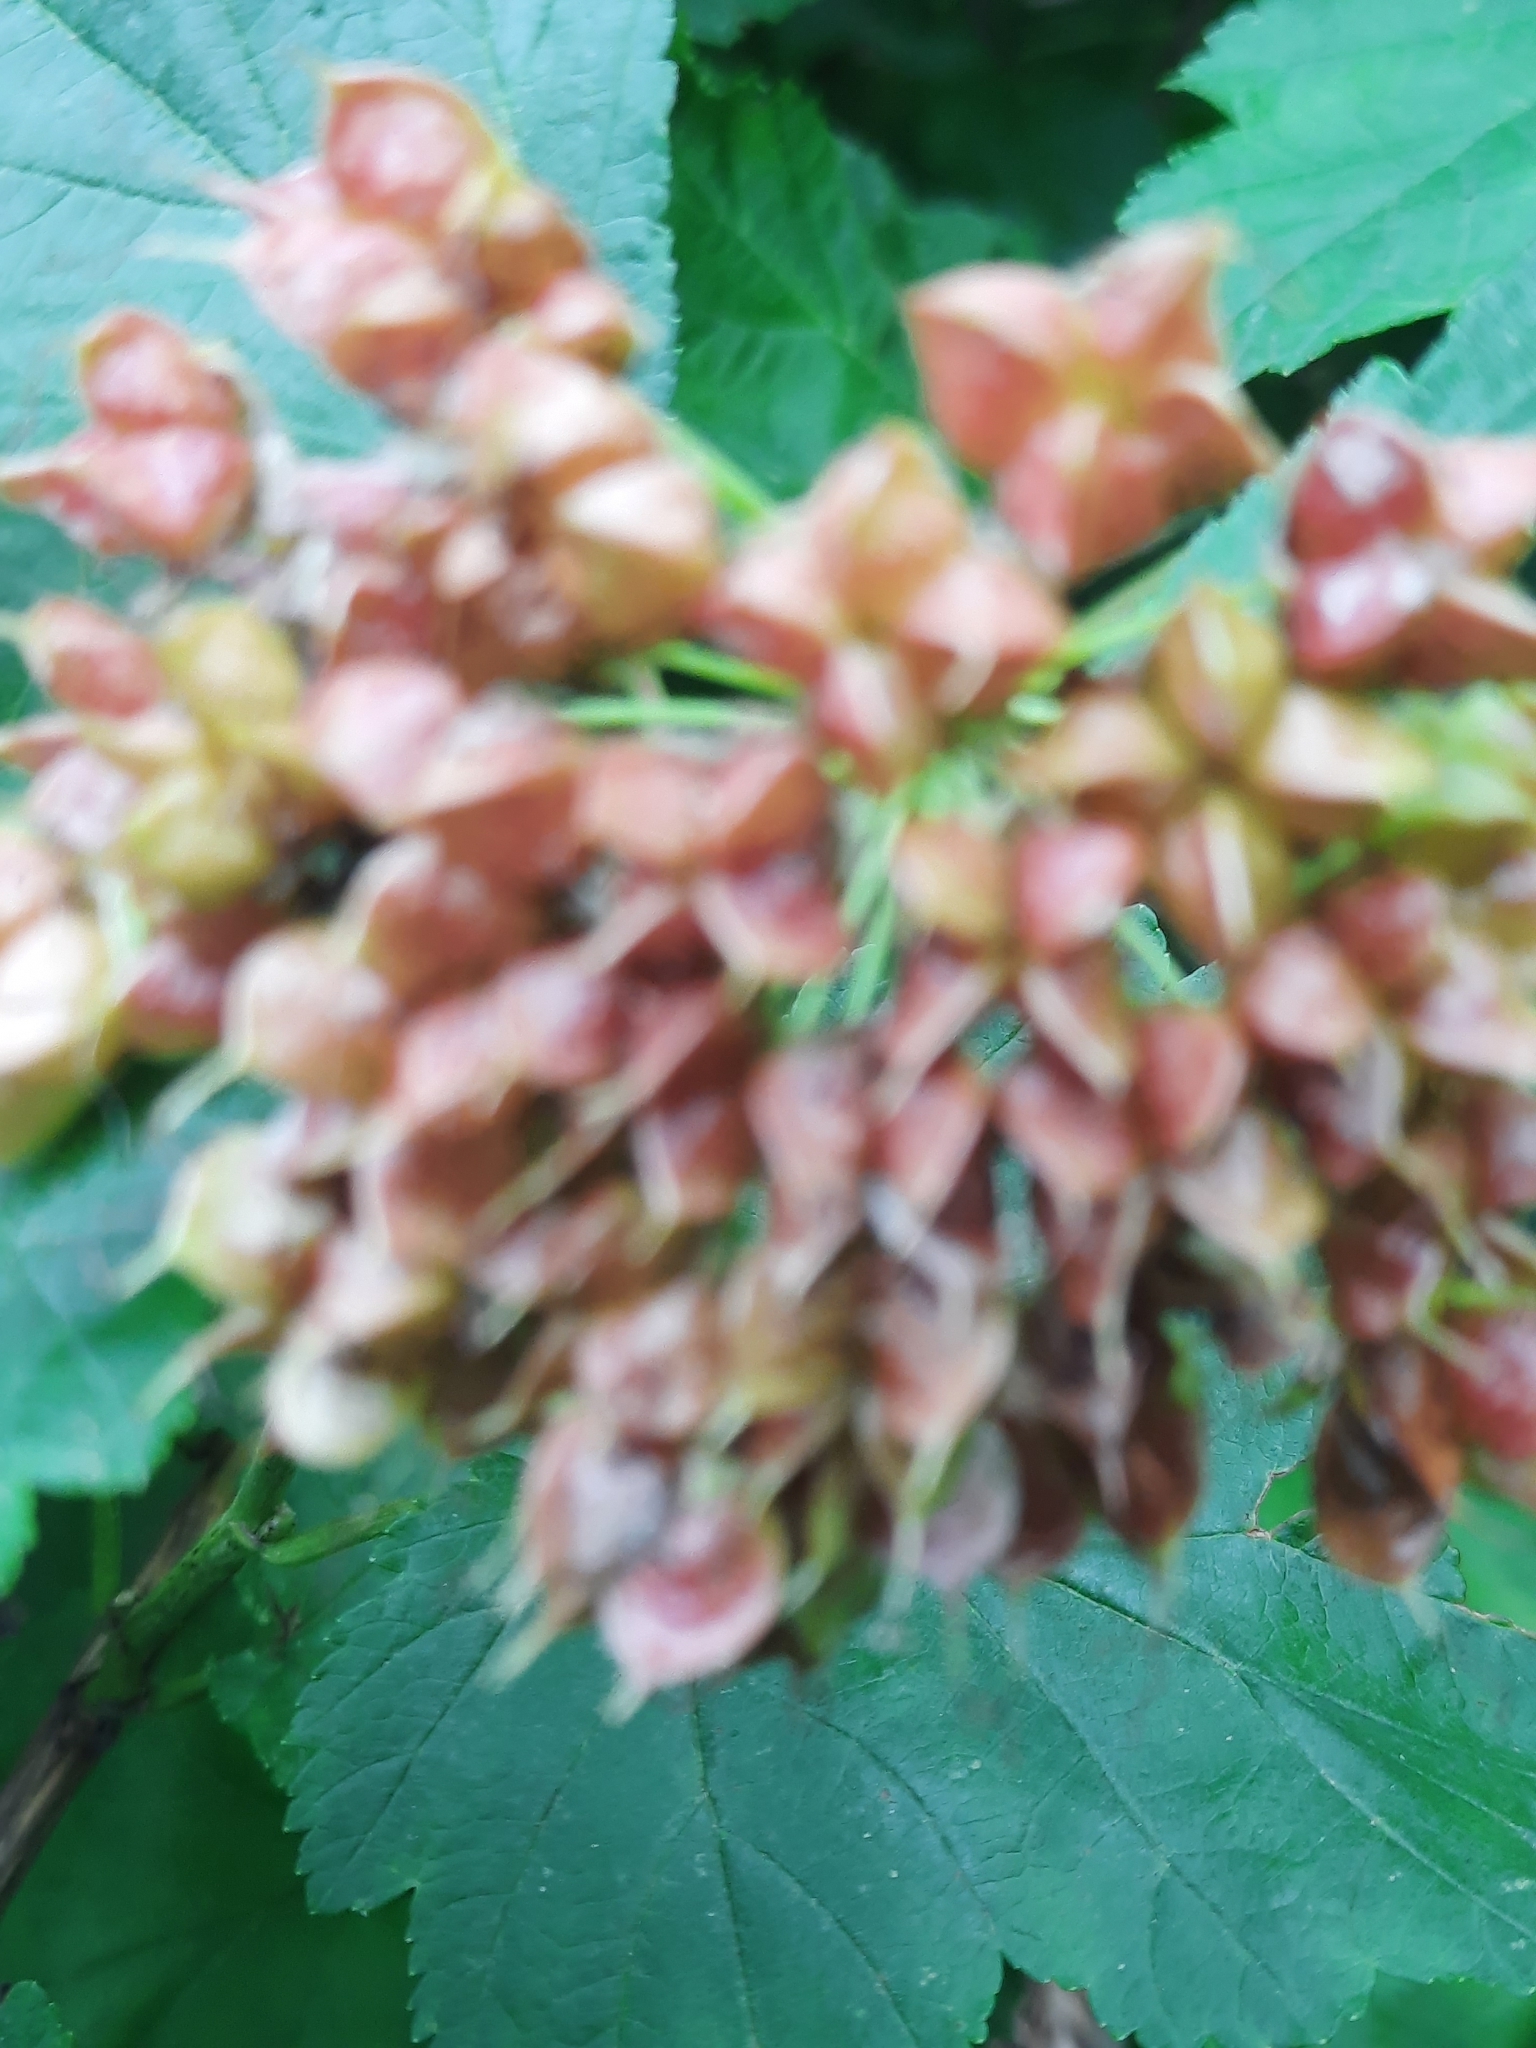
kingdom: Plantae
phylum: Tracheophyta
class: Magnoliopsida
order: Rosales
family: Rosaceae
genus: Physocarpus
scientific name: Physocarpus opulifolius
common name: Ninebark
